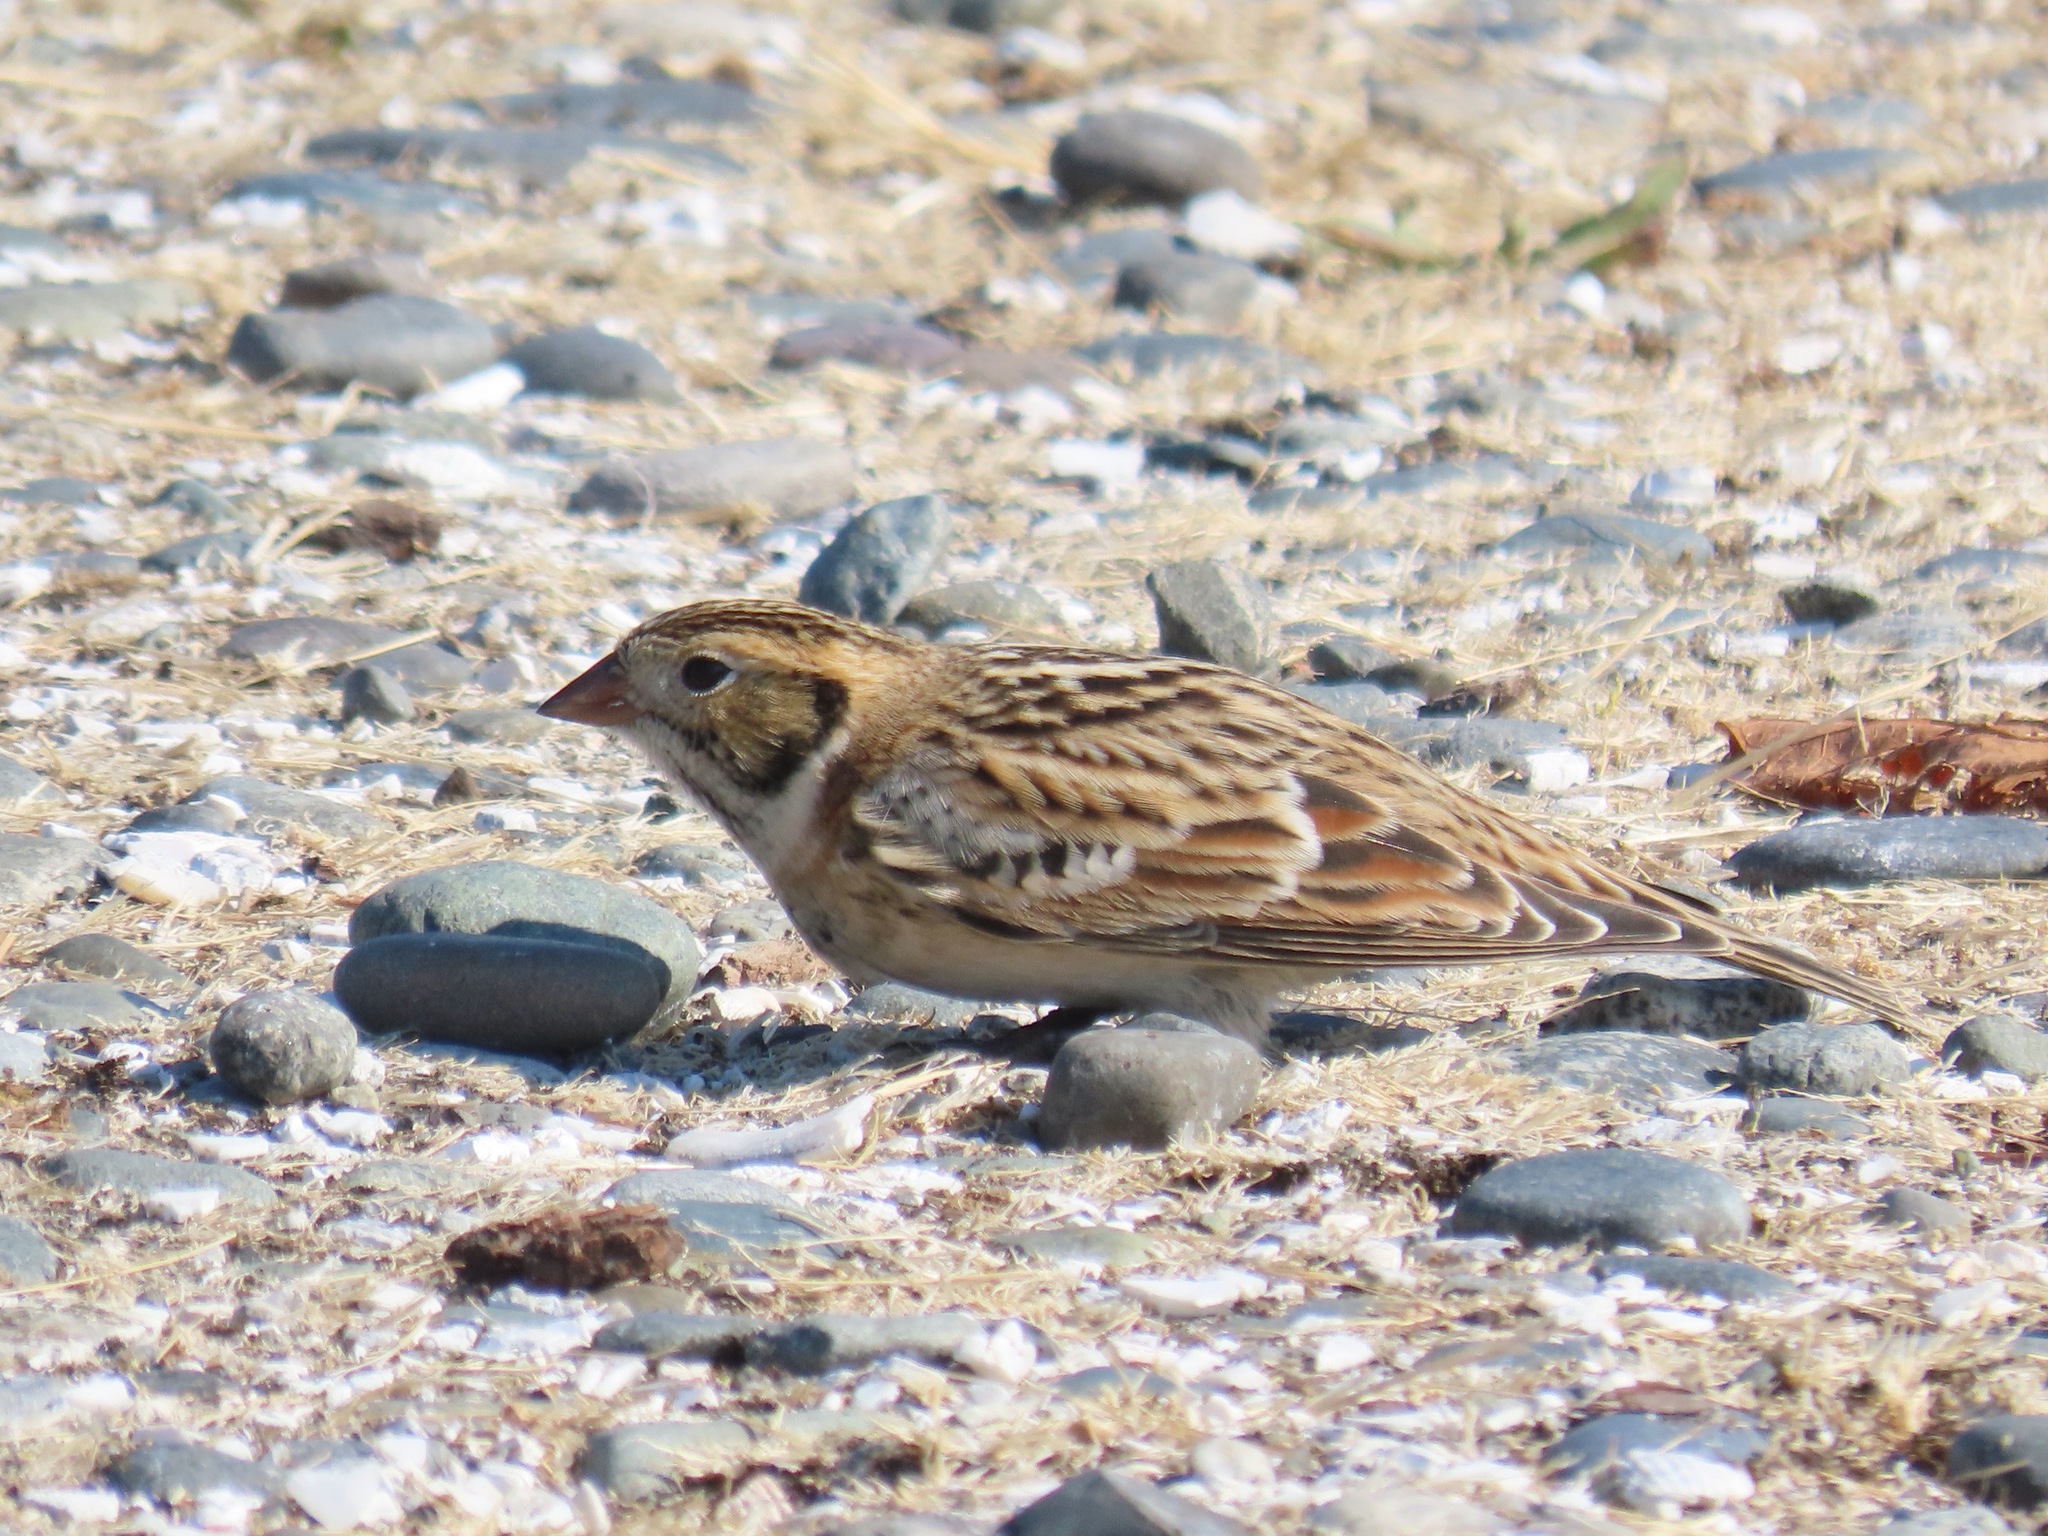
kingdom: Animalia
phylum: Chordata
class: Aves
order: Passeriformes
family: Calcariidae
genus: Calcarius
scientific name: Calcarius lapponicus
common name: Lapland longspur
